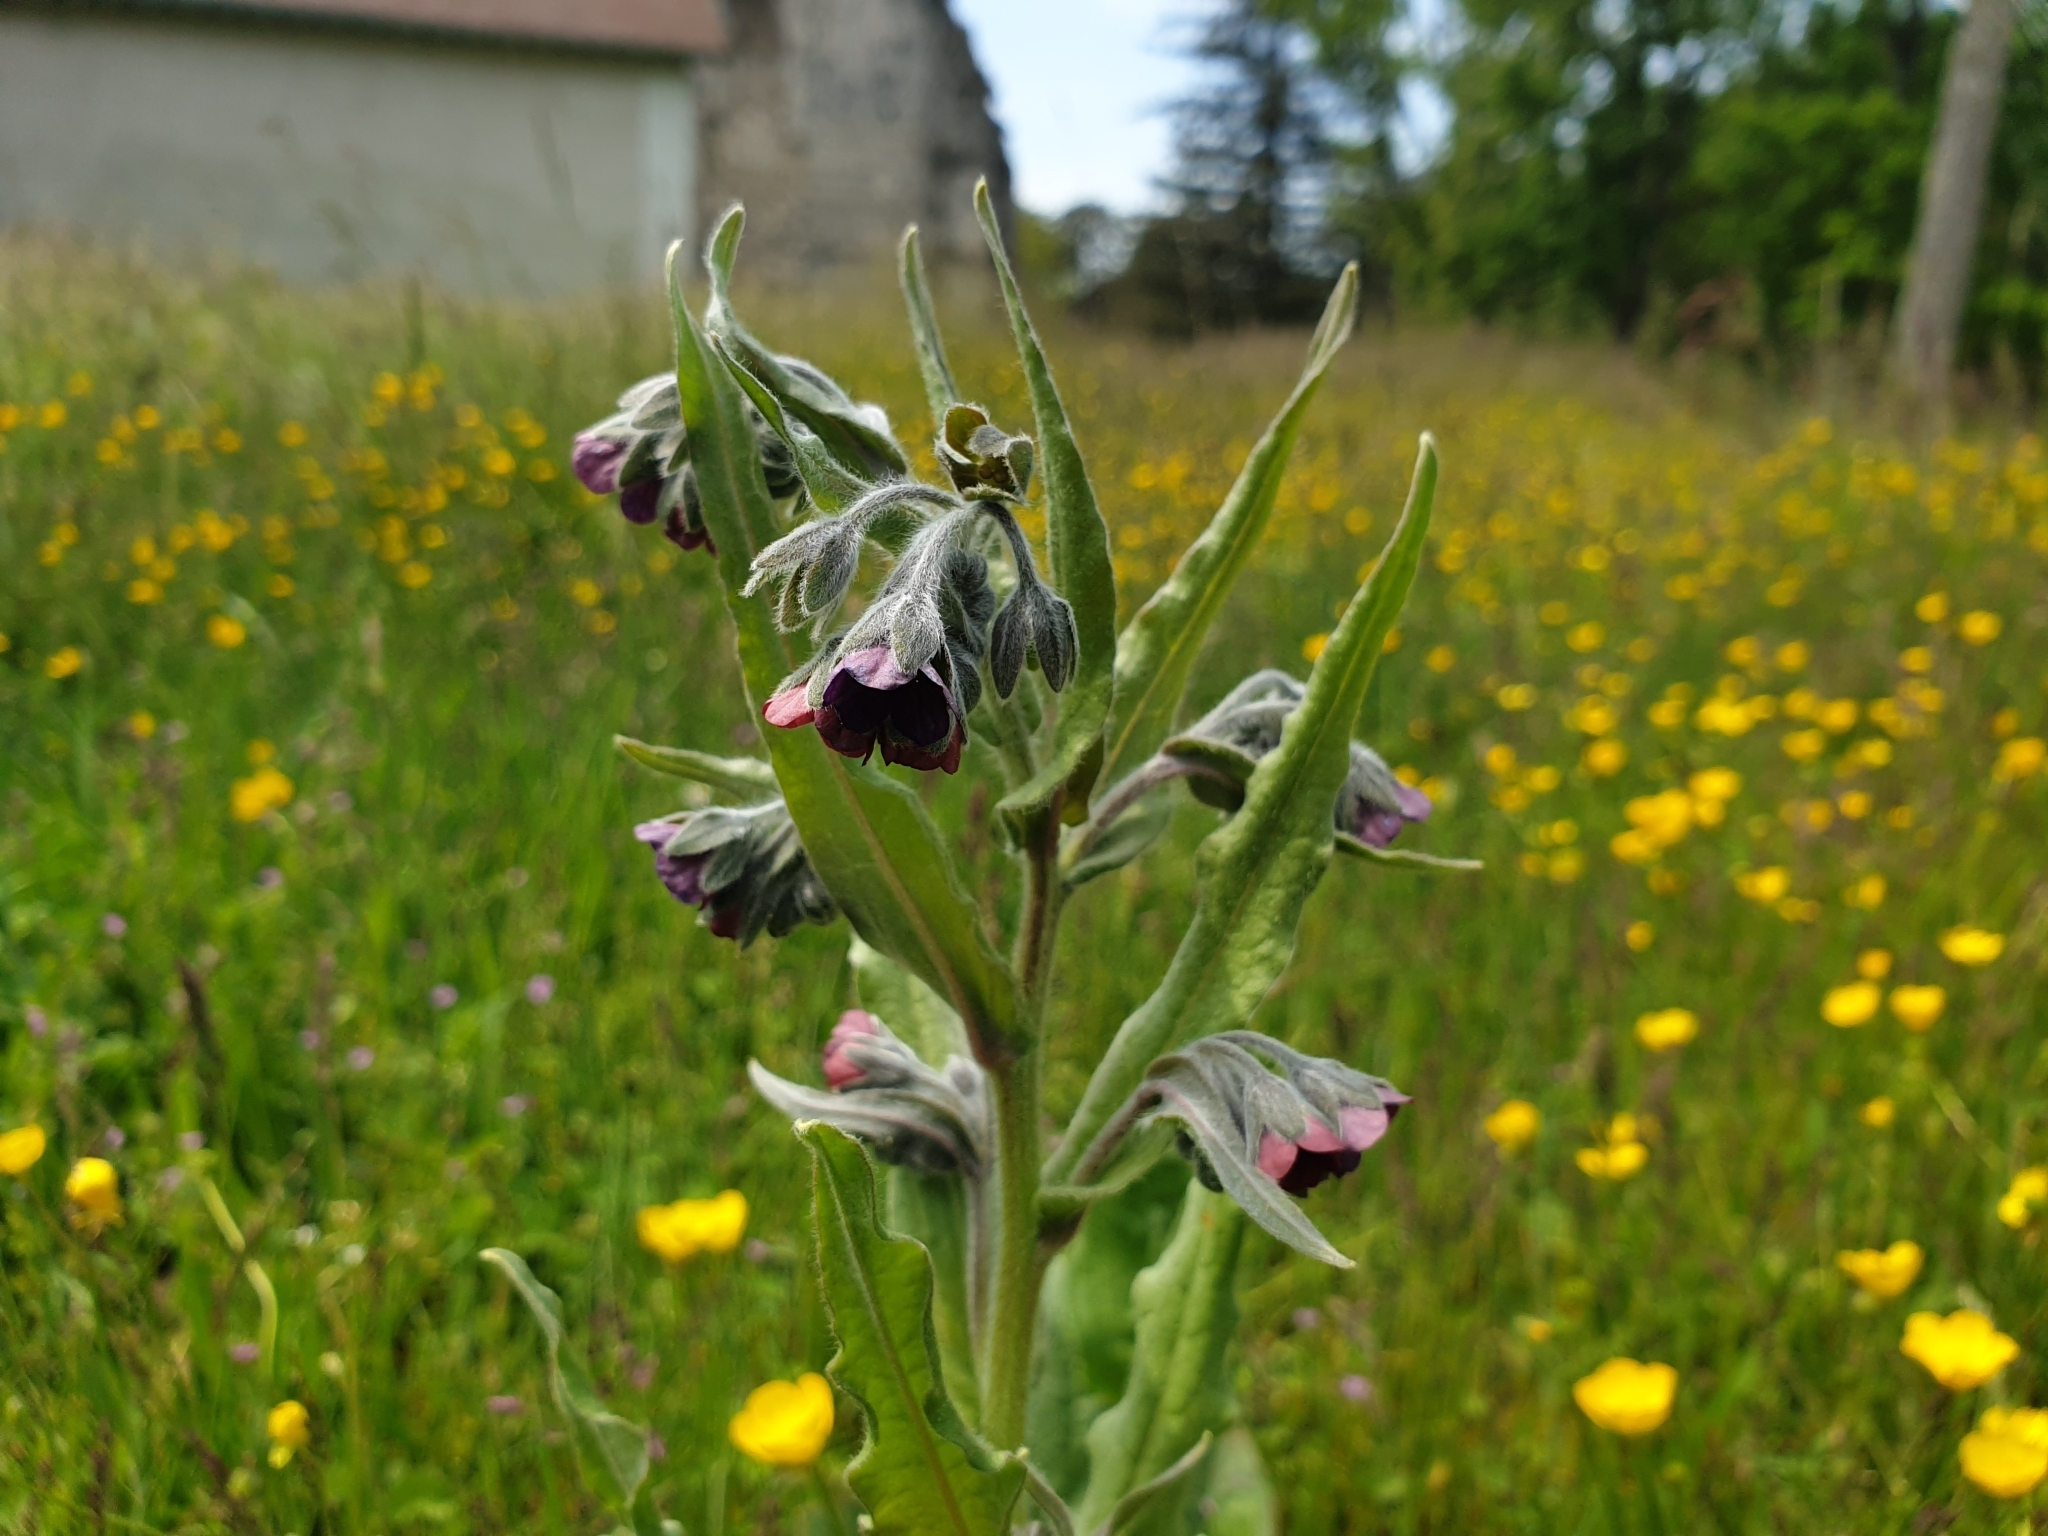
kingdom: Plantae
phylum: Tracheophyta
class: Magnoliopsida
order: Boraginales
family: Boraginaceae
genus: Cynoglossum
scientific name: Cynoglossum officinale
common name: Hound's-tongue
